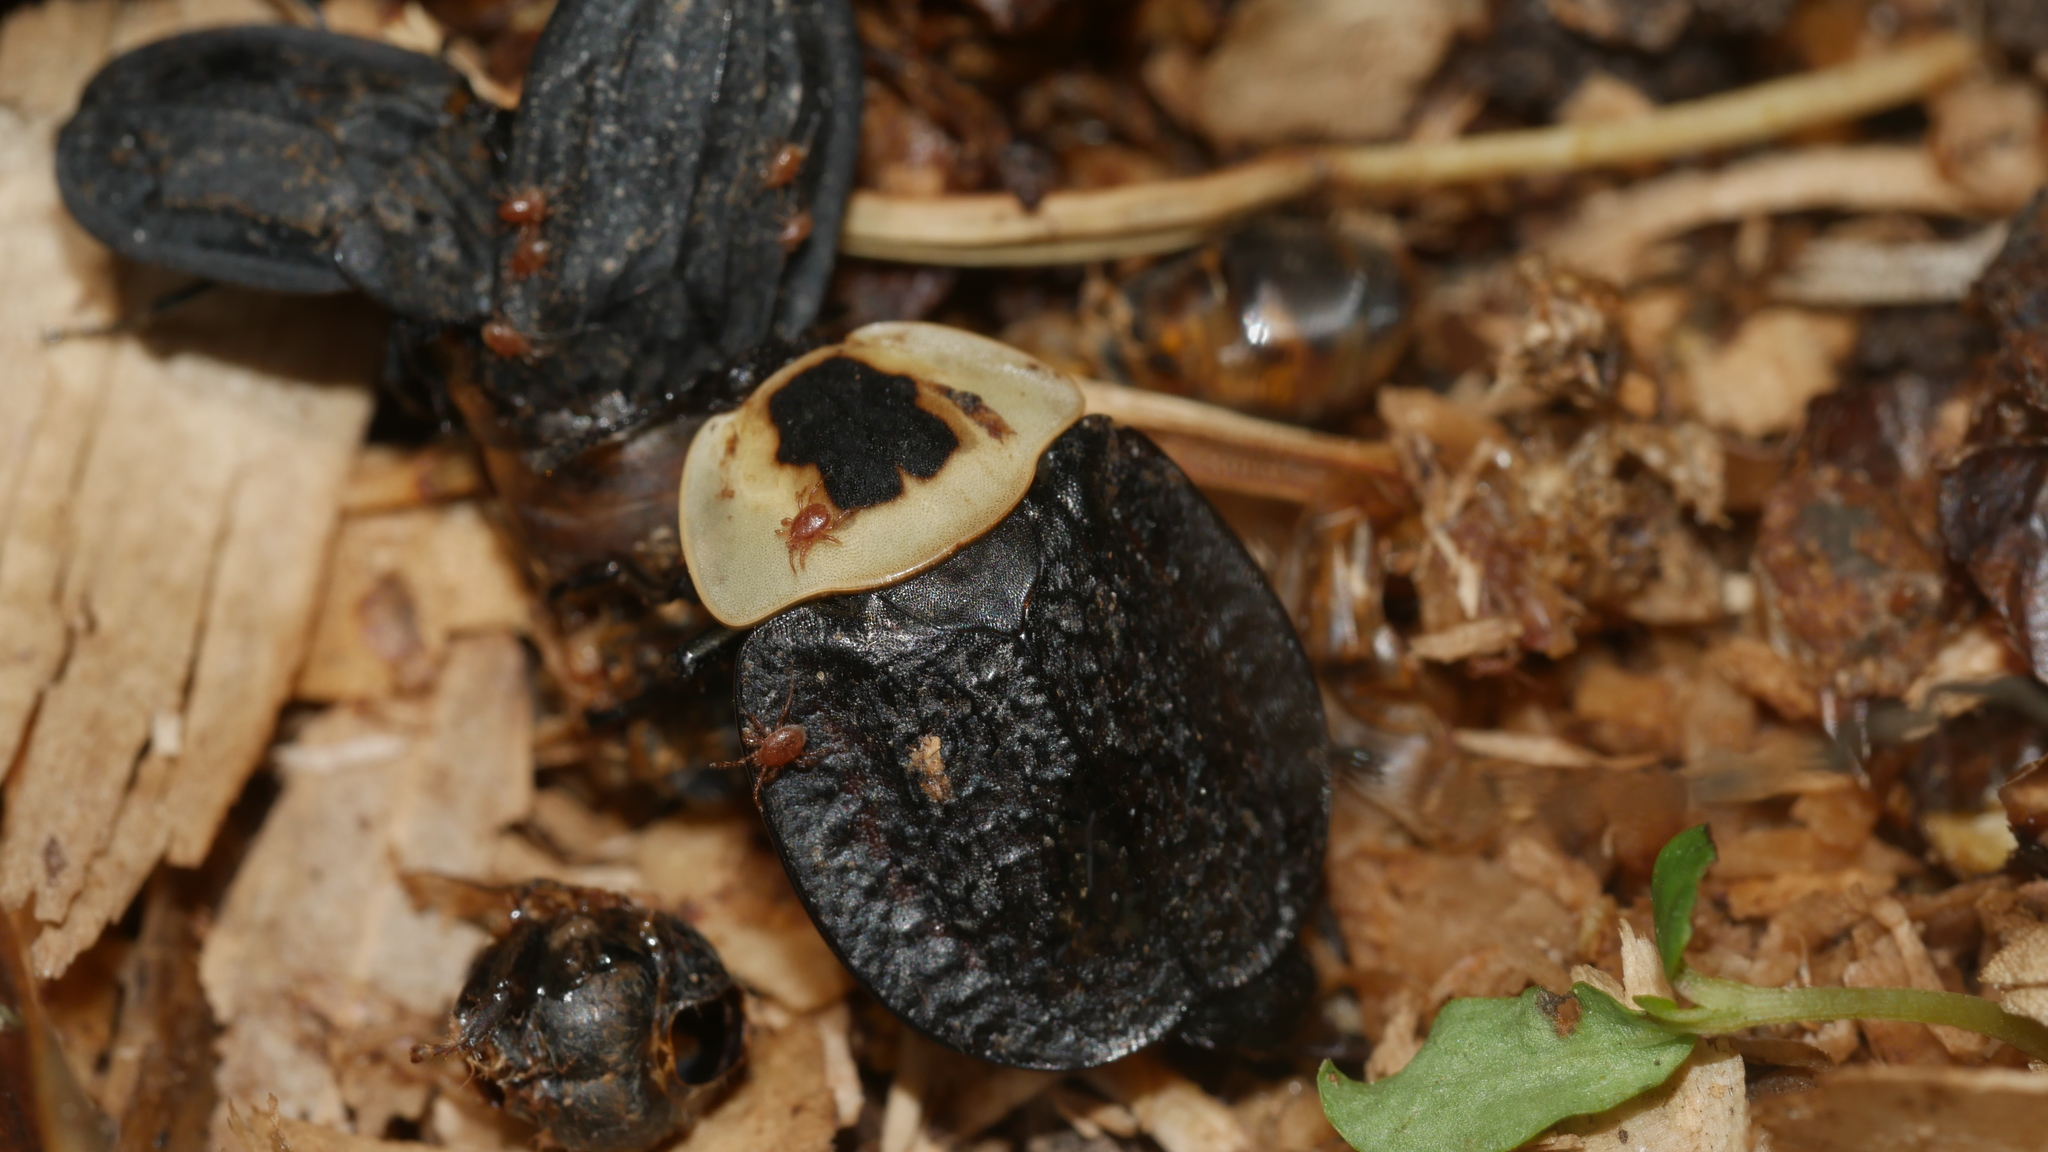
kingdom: Animalia
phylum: Arthropoda
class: Insecta
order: Coleoptera
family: Staphylinidae
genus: Necrophila
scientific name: Necrophila americana
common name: American carrion beetle
